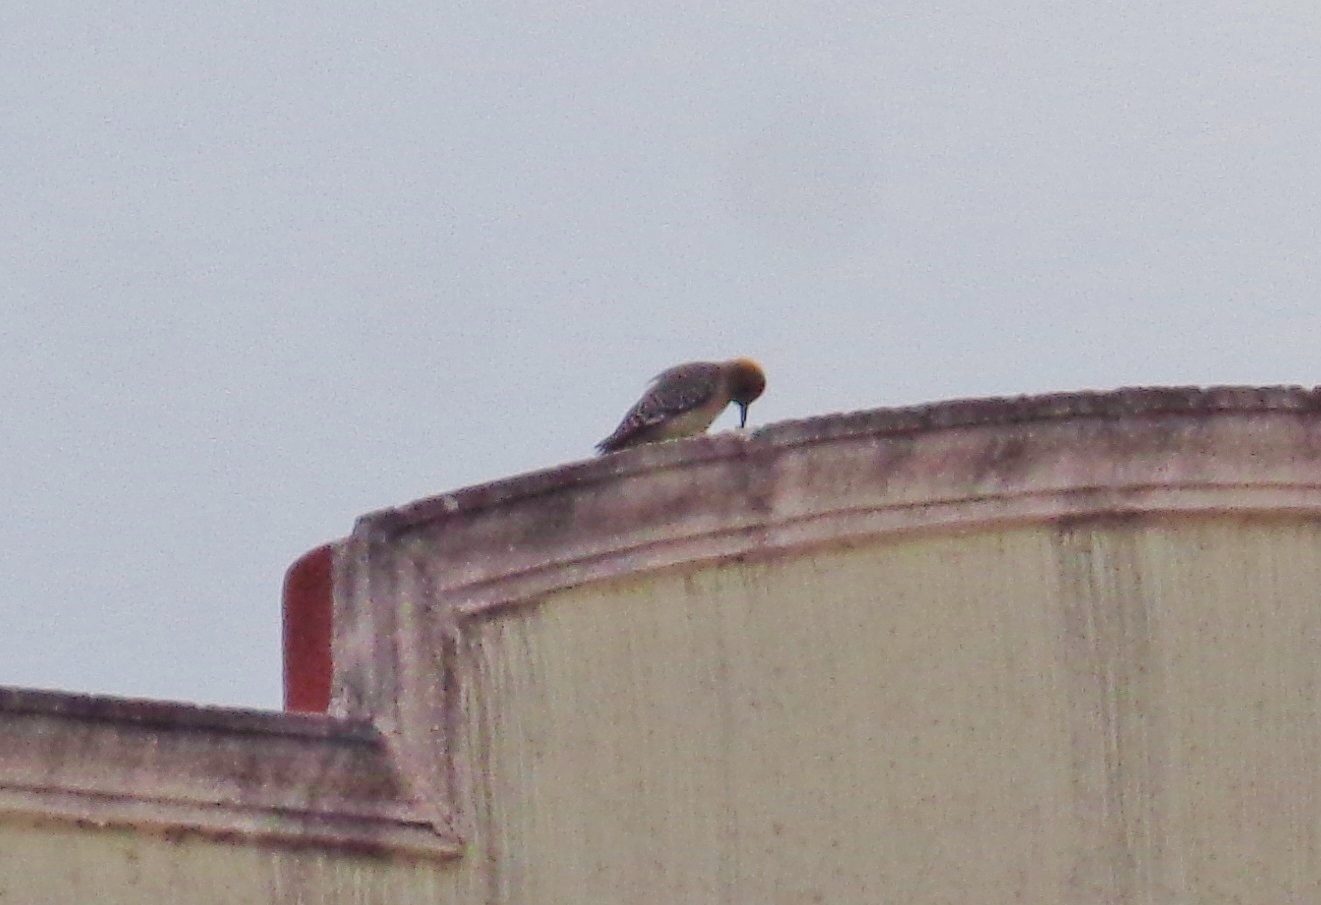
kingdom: Animalia
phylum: Chordata
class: Aves
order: Piciformes
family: Picidae
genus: Melanerpes
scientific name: Melanerpes aurifrons
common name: Golden-fronted woodpecker
